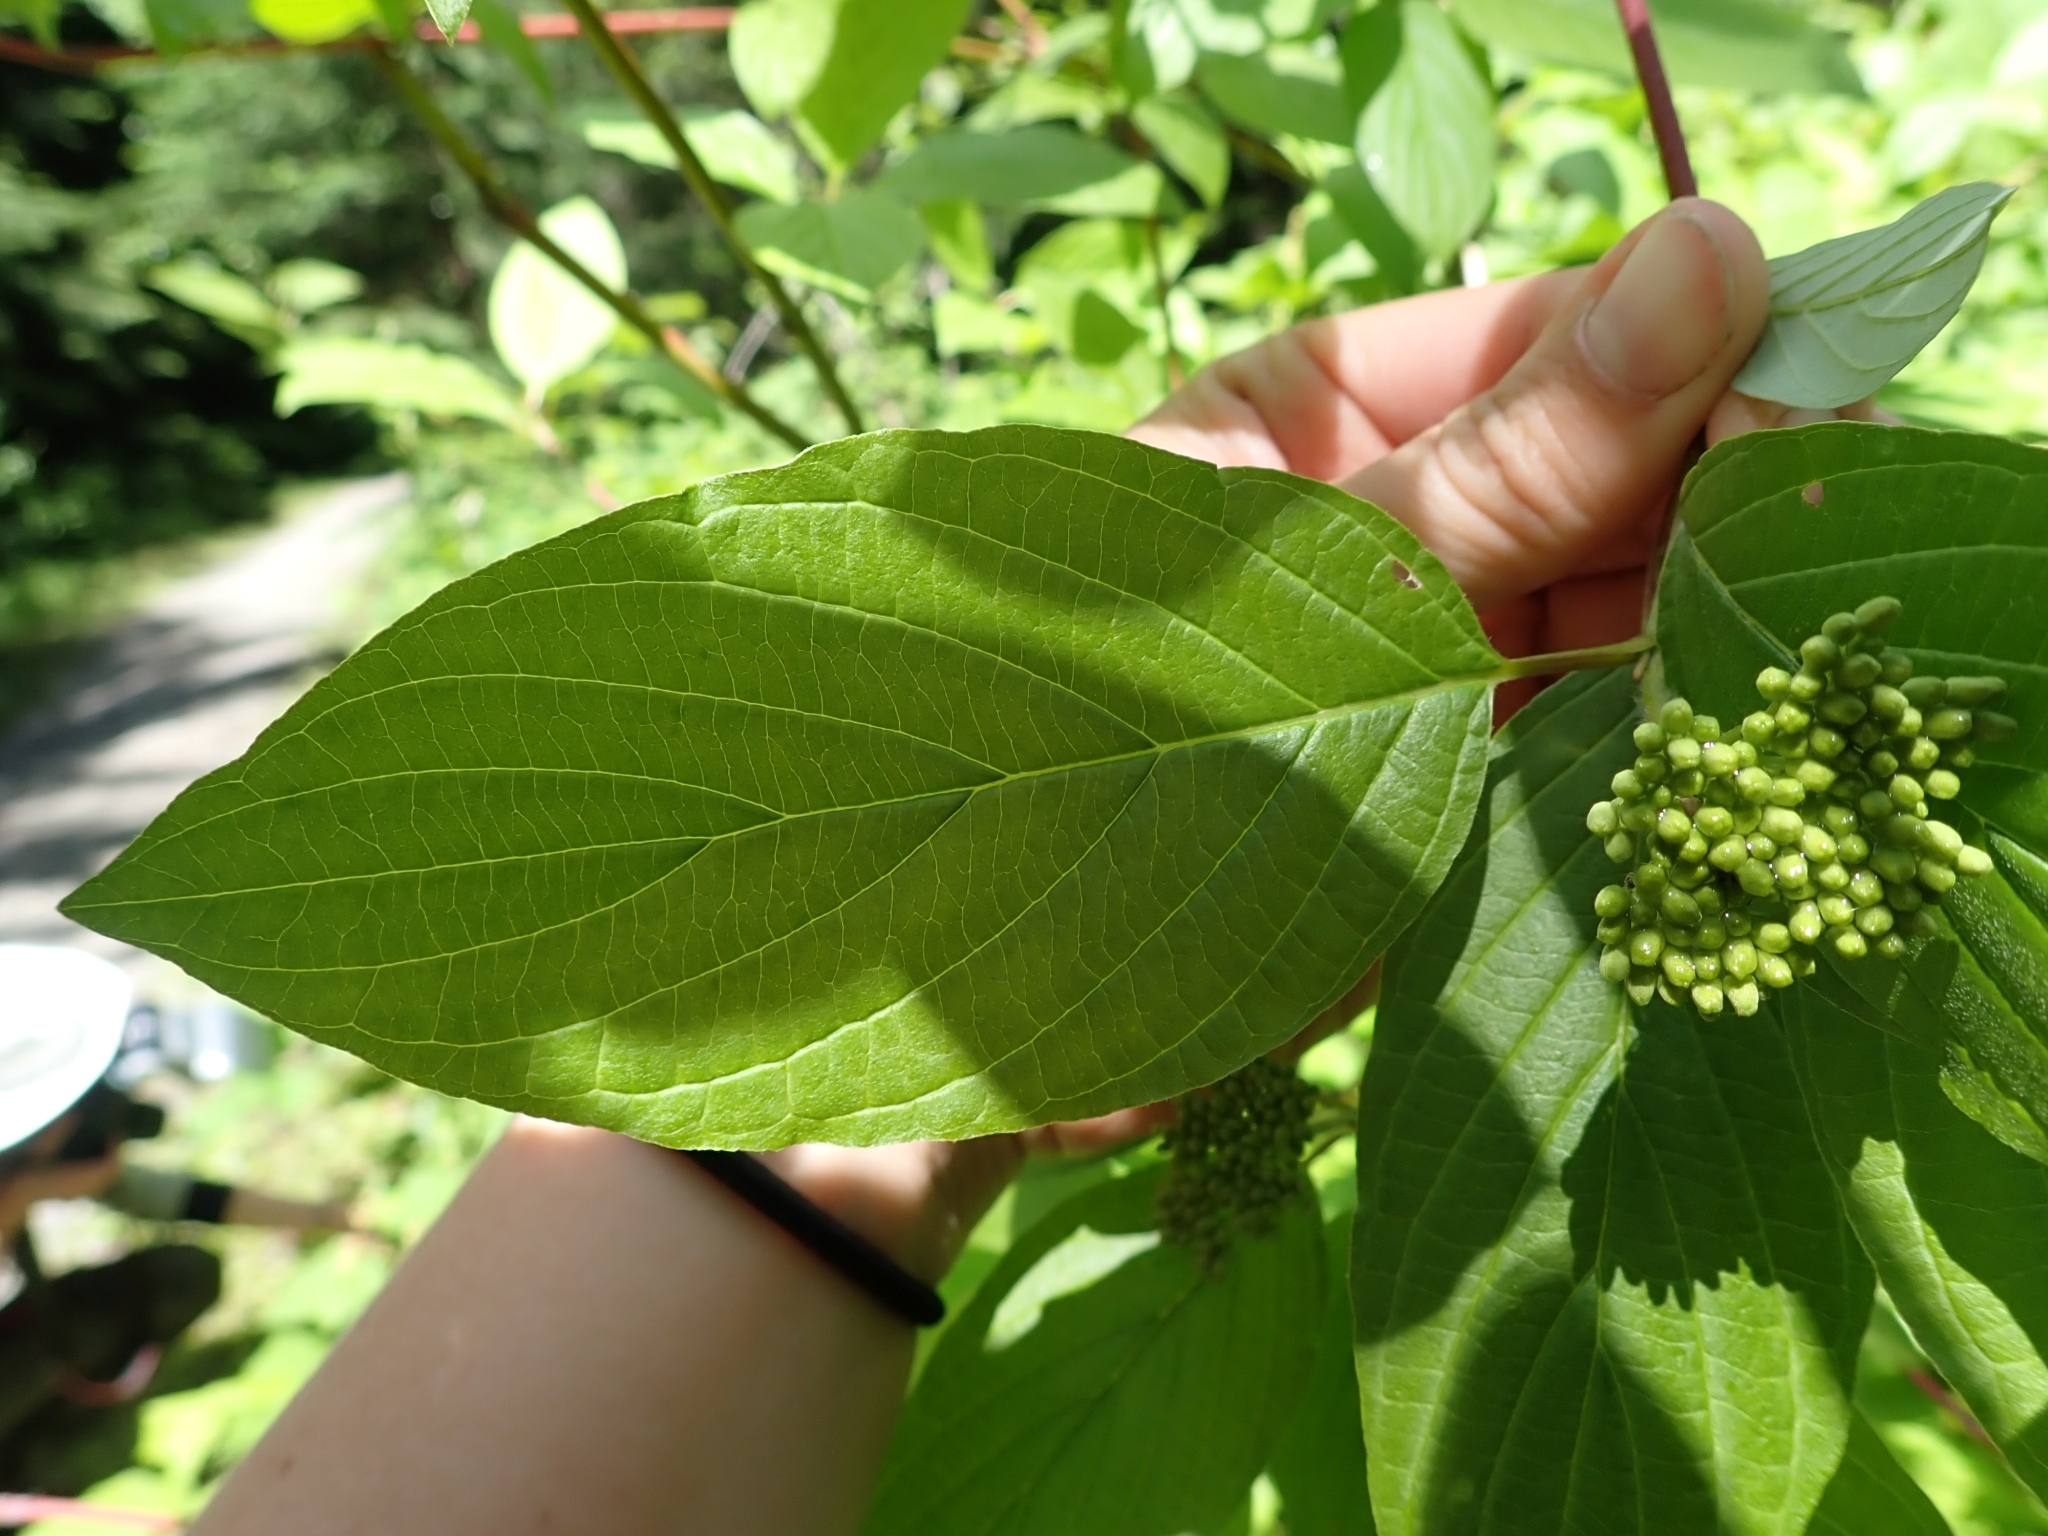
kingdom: Plantae
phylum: Tracheophyta
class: Magnoliopsida
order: Cornales
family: Cornaceae
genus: Cornus
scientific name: Cornus sericea
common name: Red-osier dogwood
